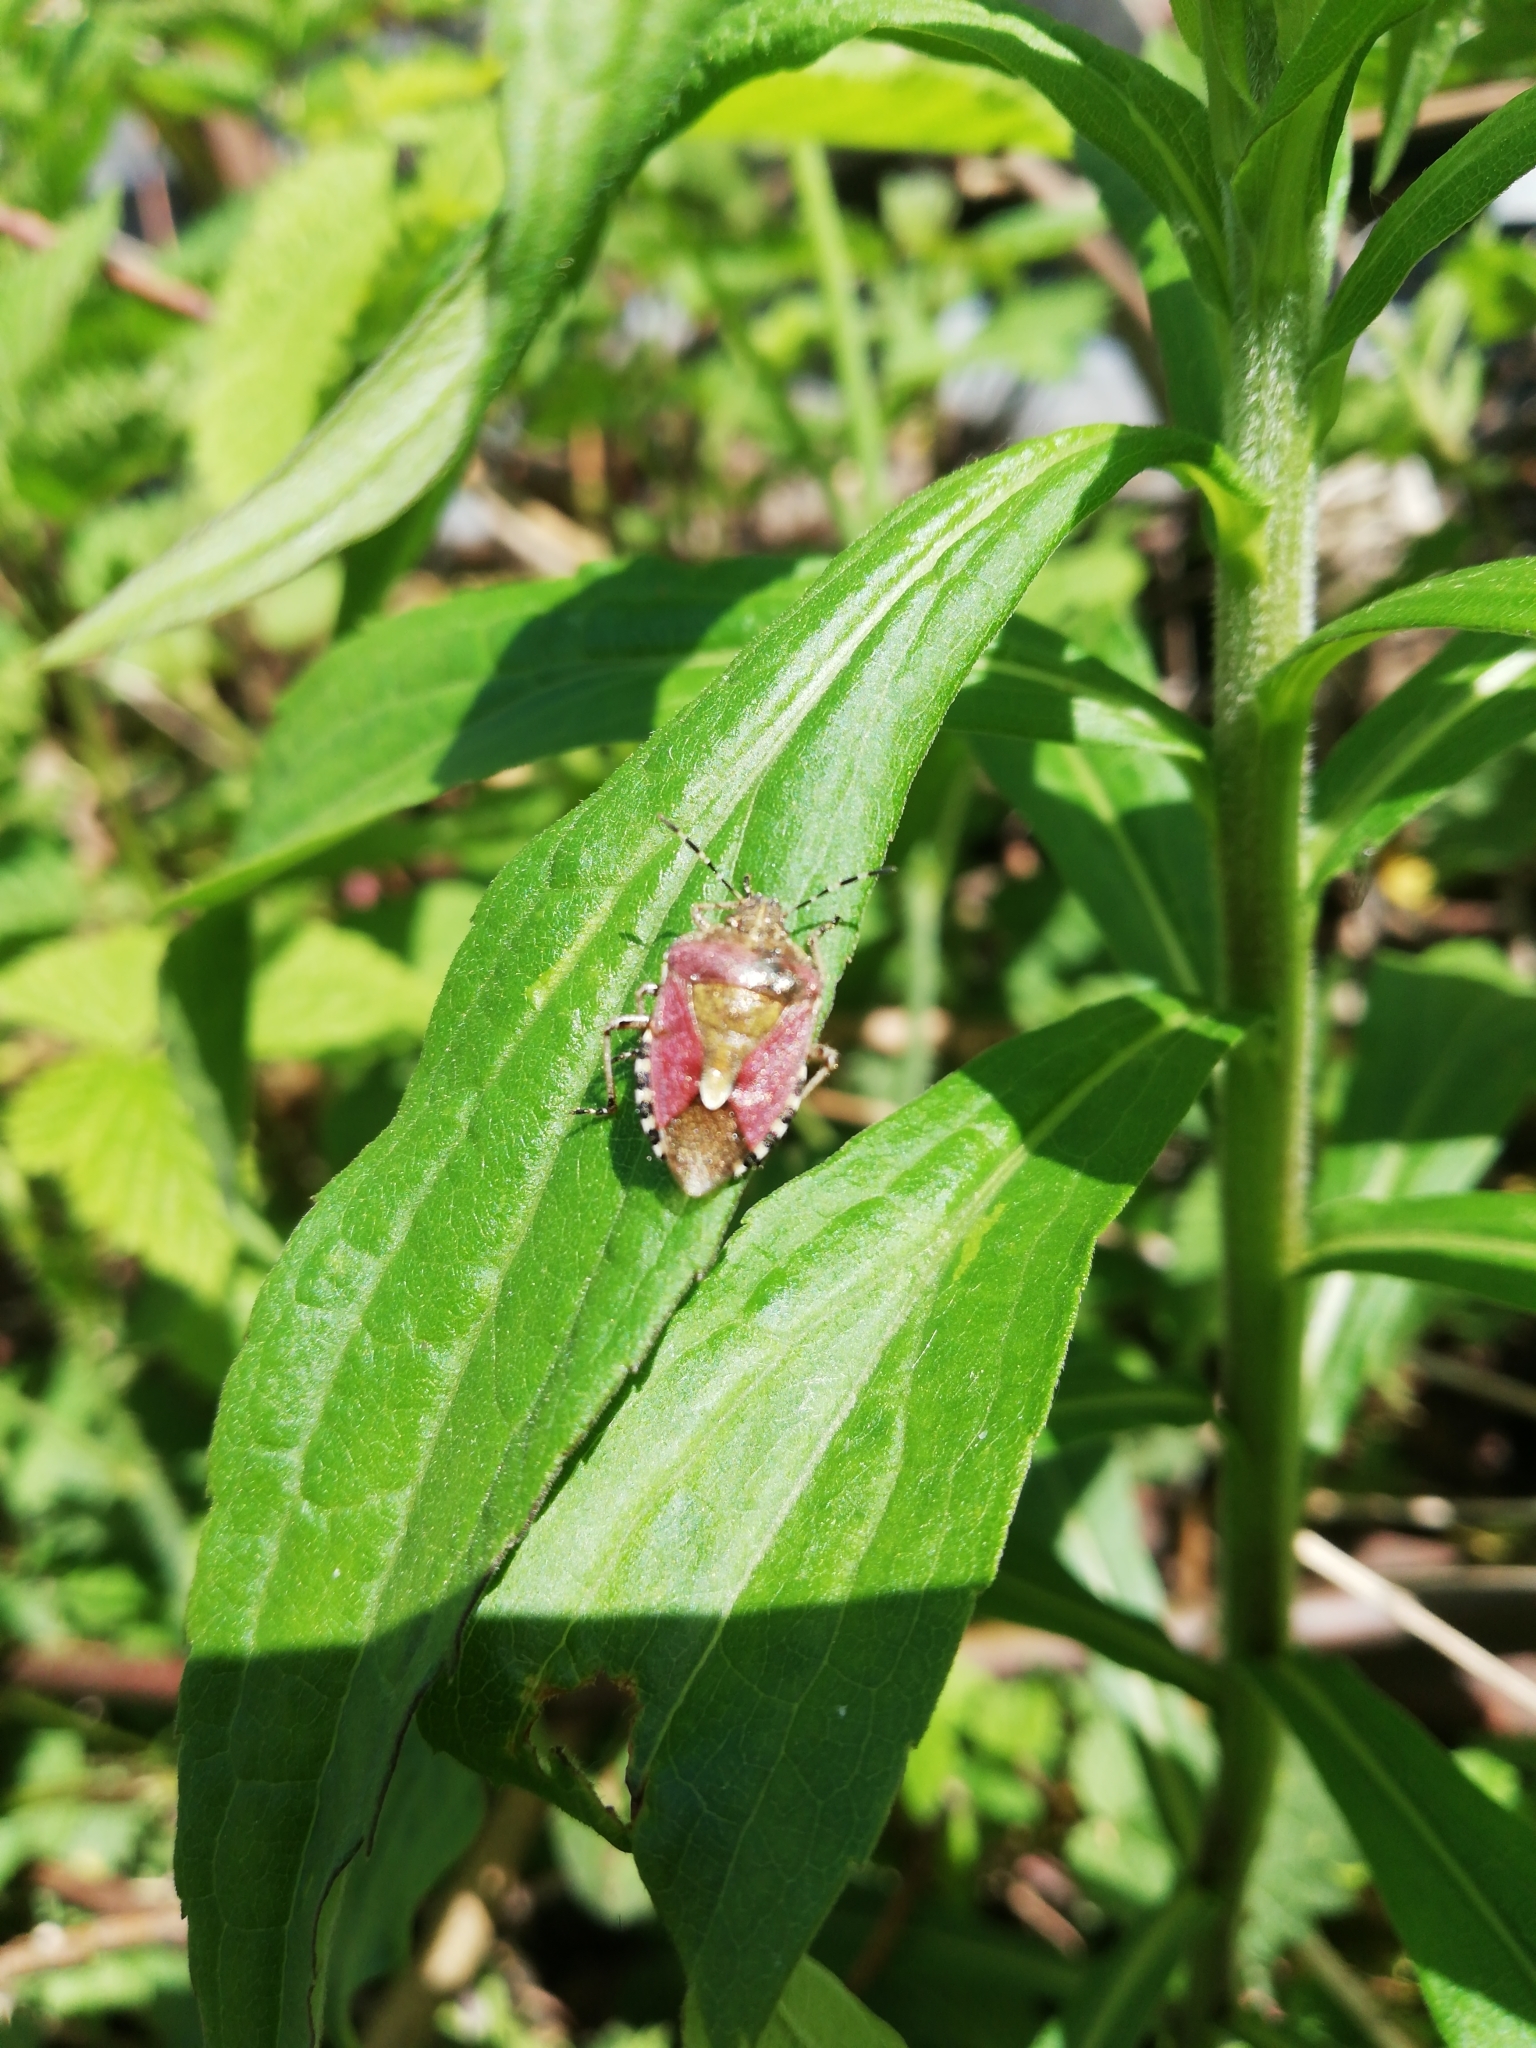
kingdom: Animalia
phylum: Arthropoda
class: Insecta
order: Hemiptera
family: Pentatomidae
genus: Dolycoris
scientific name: Dolycoris baccarum
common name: Sloe bug
